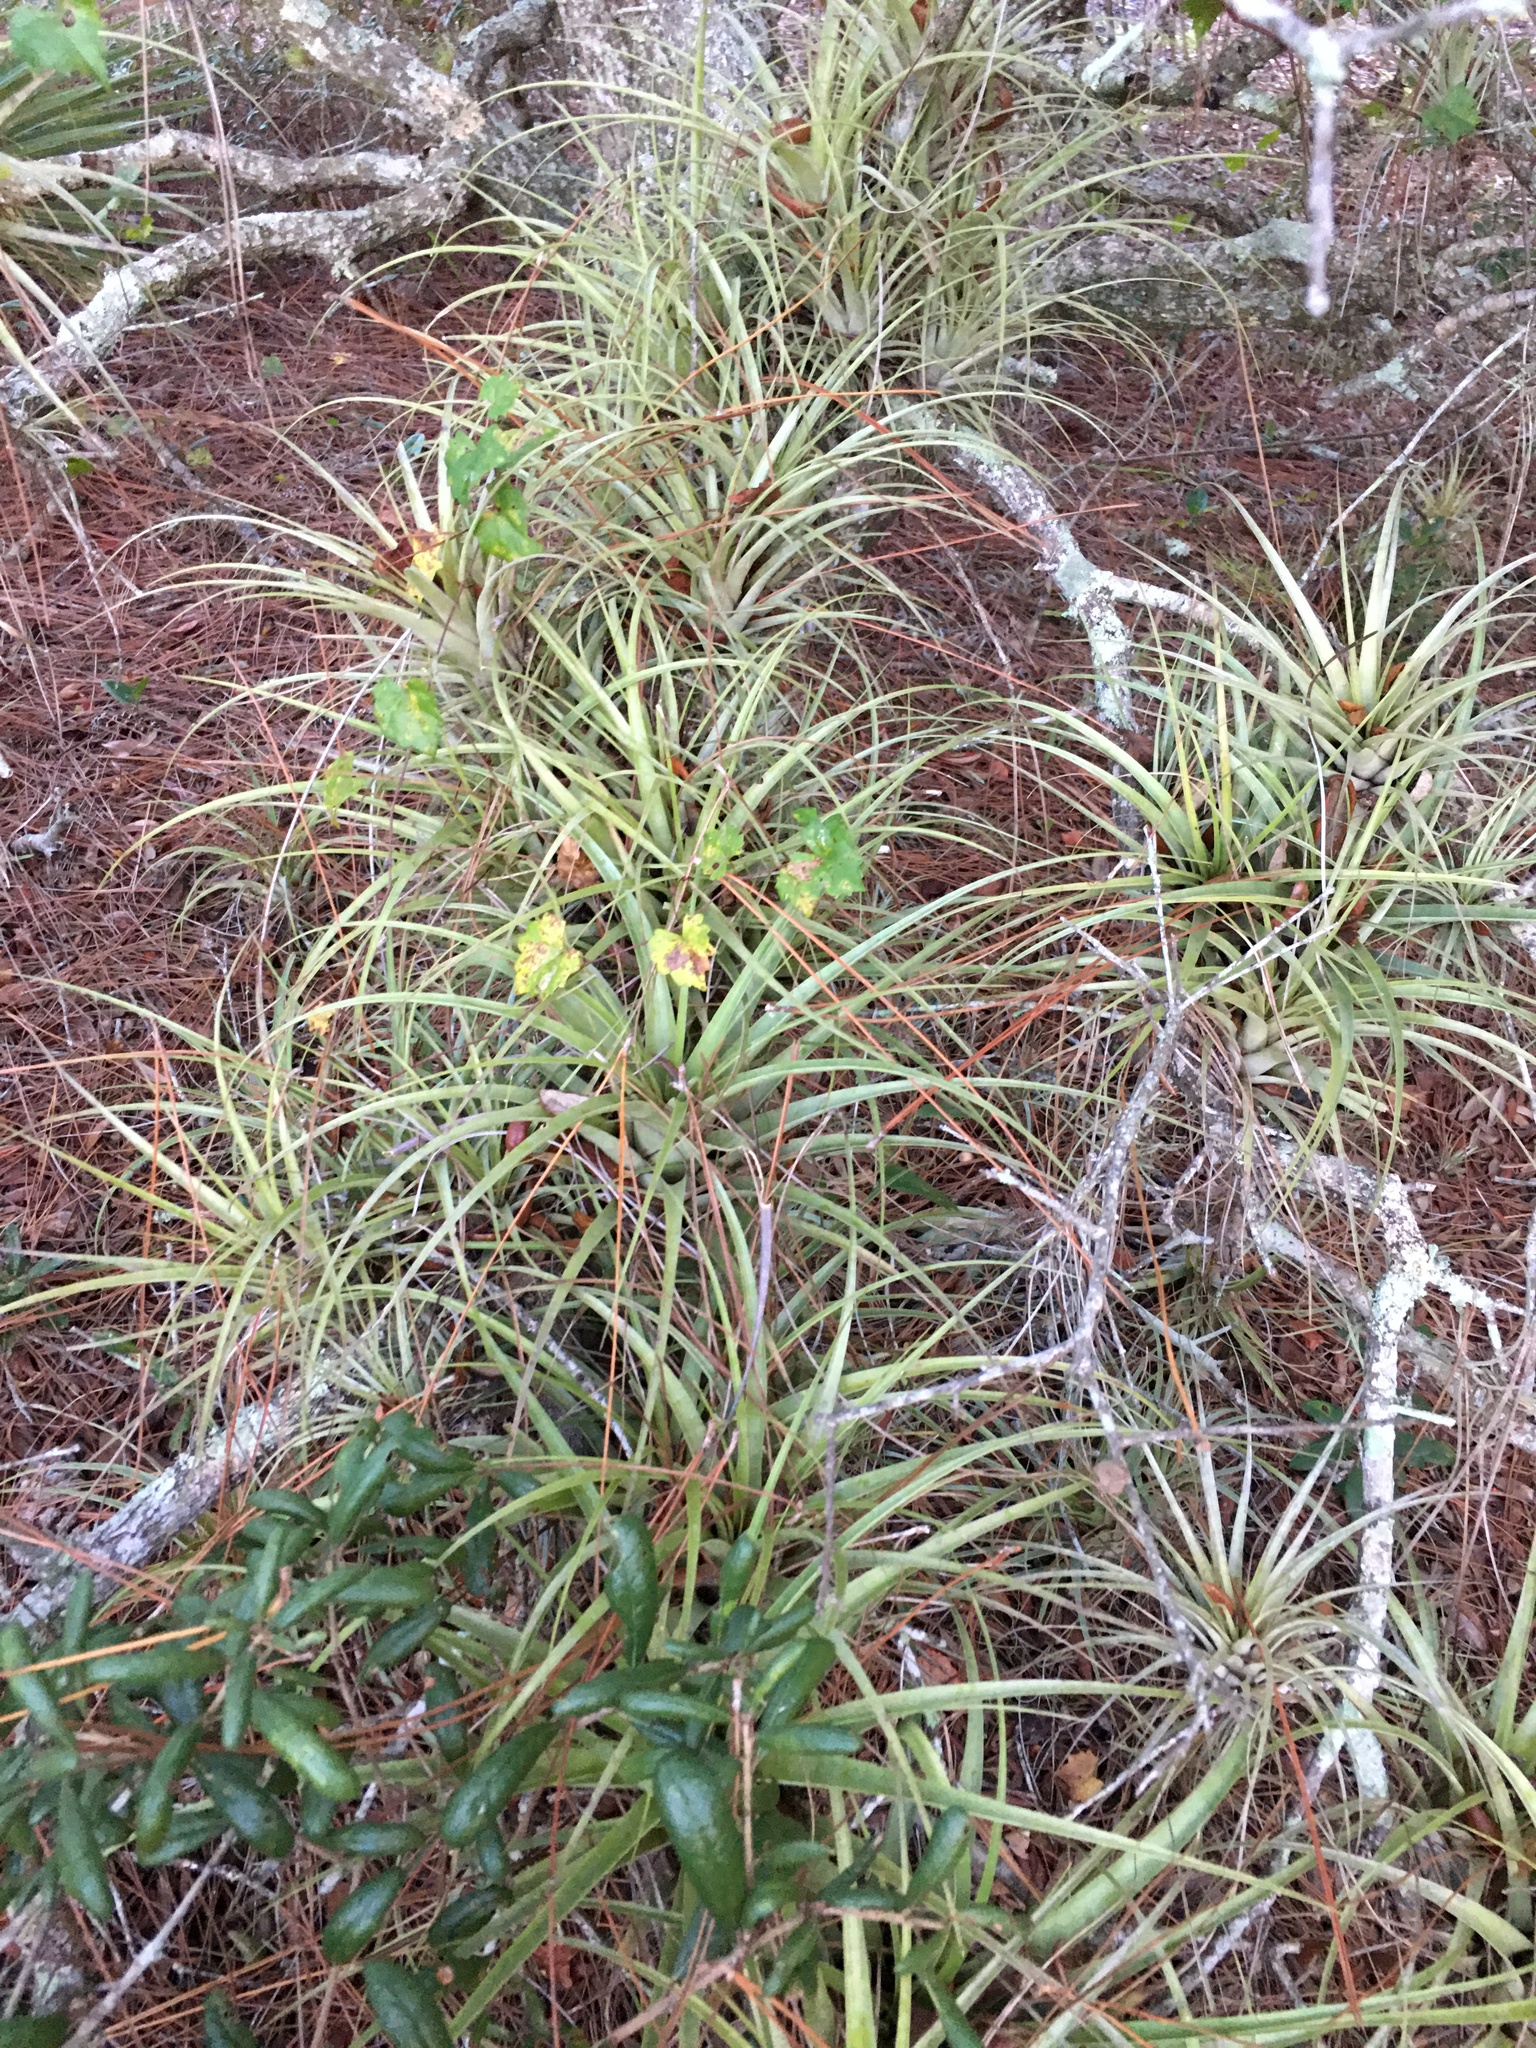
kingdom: Plantae
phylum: Tracheophyta
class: Liliopsida
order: Poales
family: Bromeliaceae
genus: Tillandsia
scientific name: Tillandsia utriculata
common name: Wild pine
